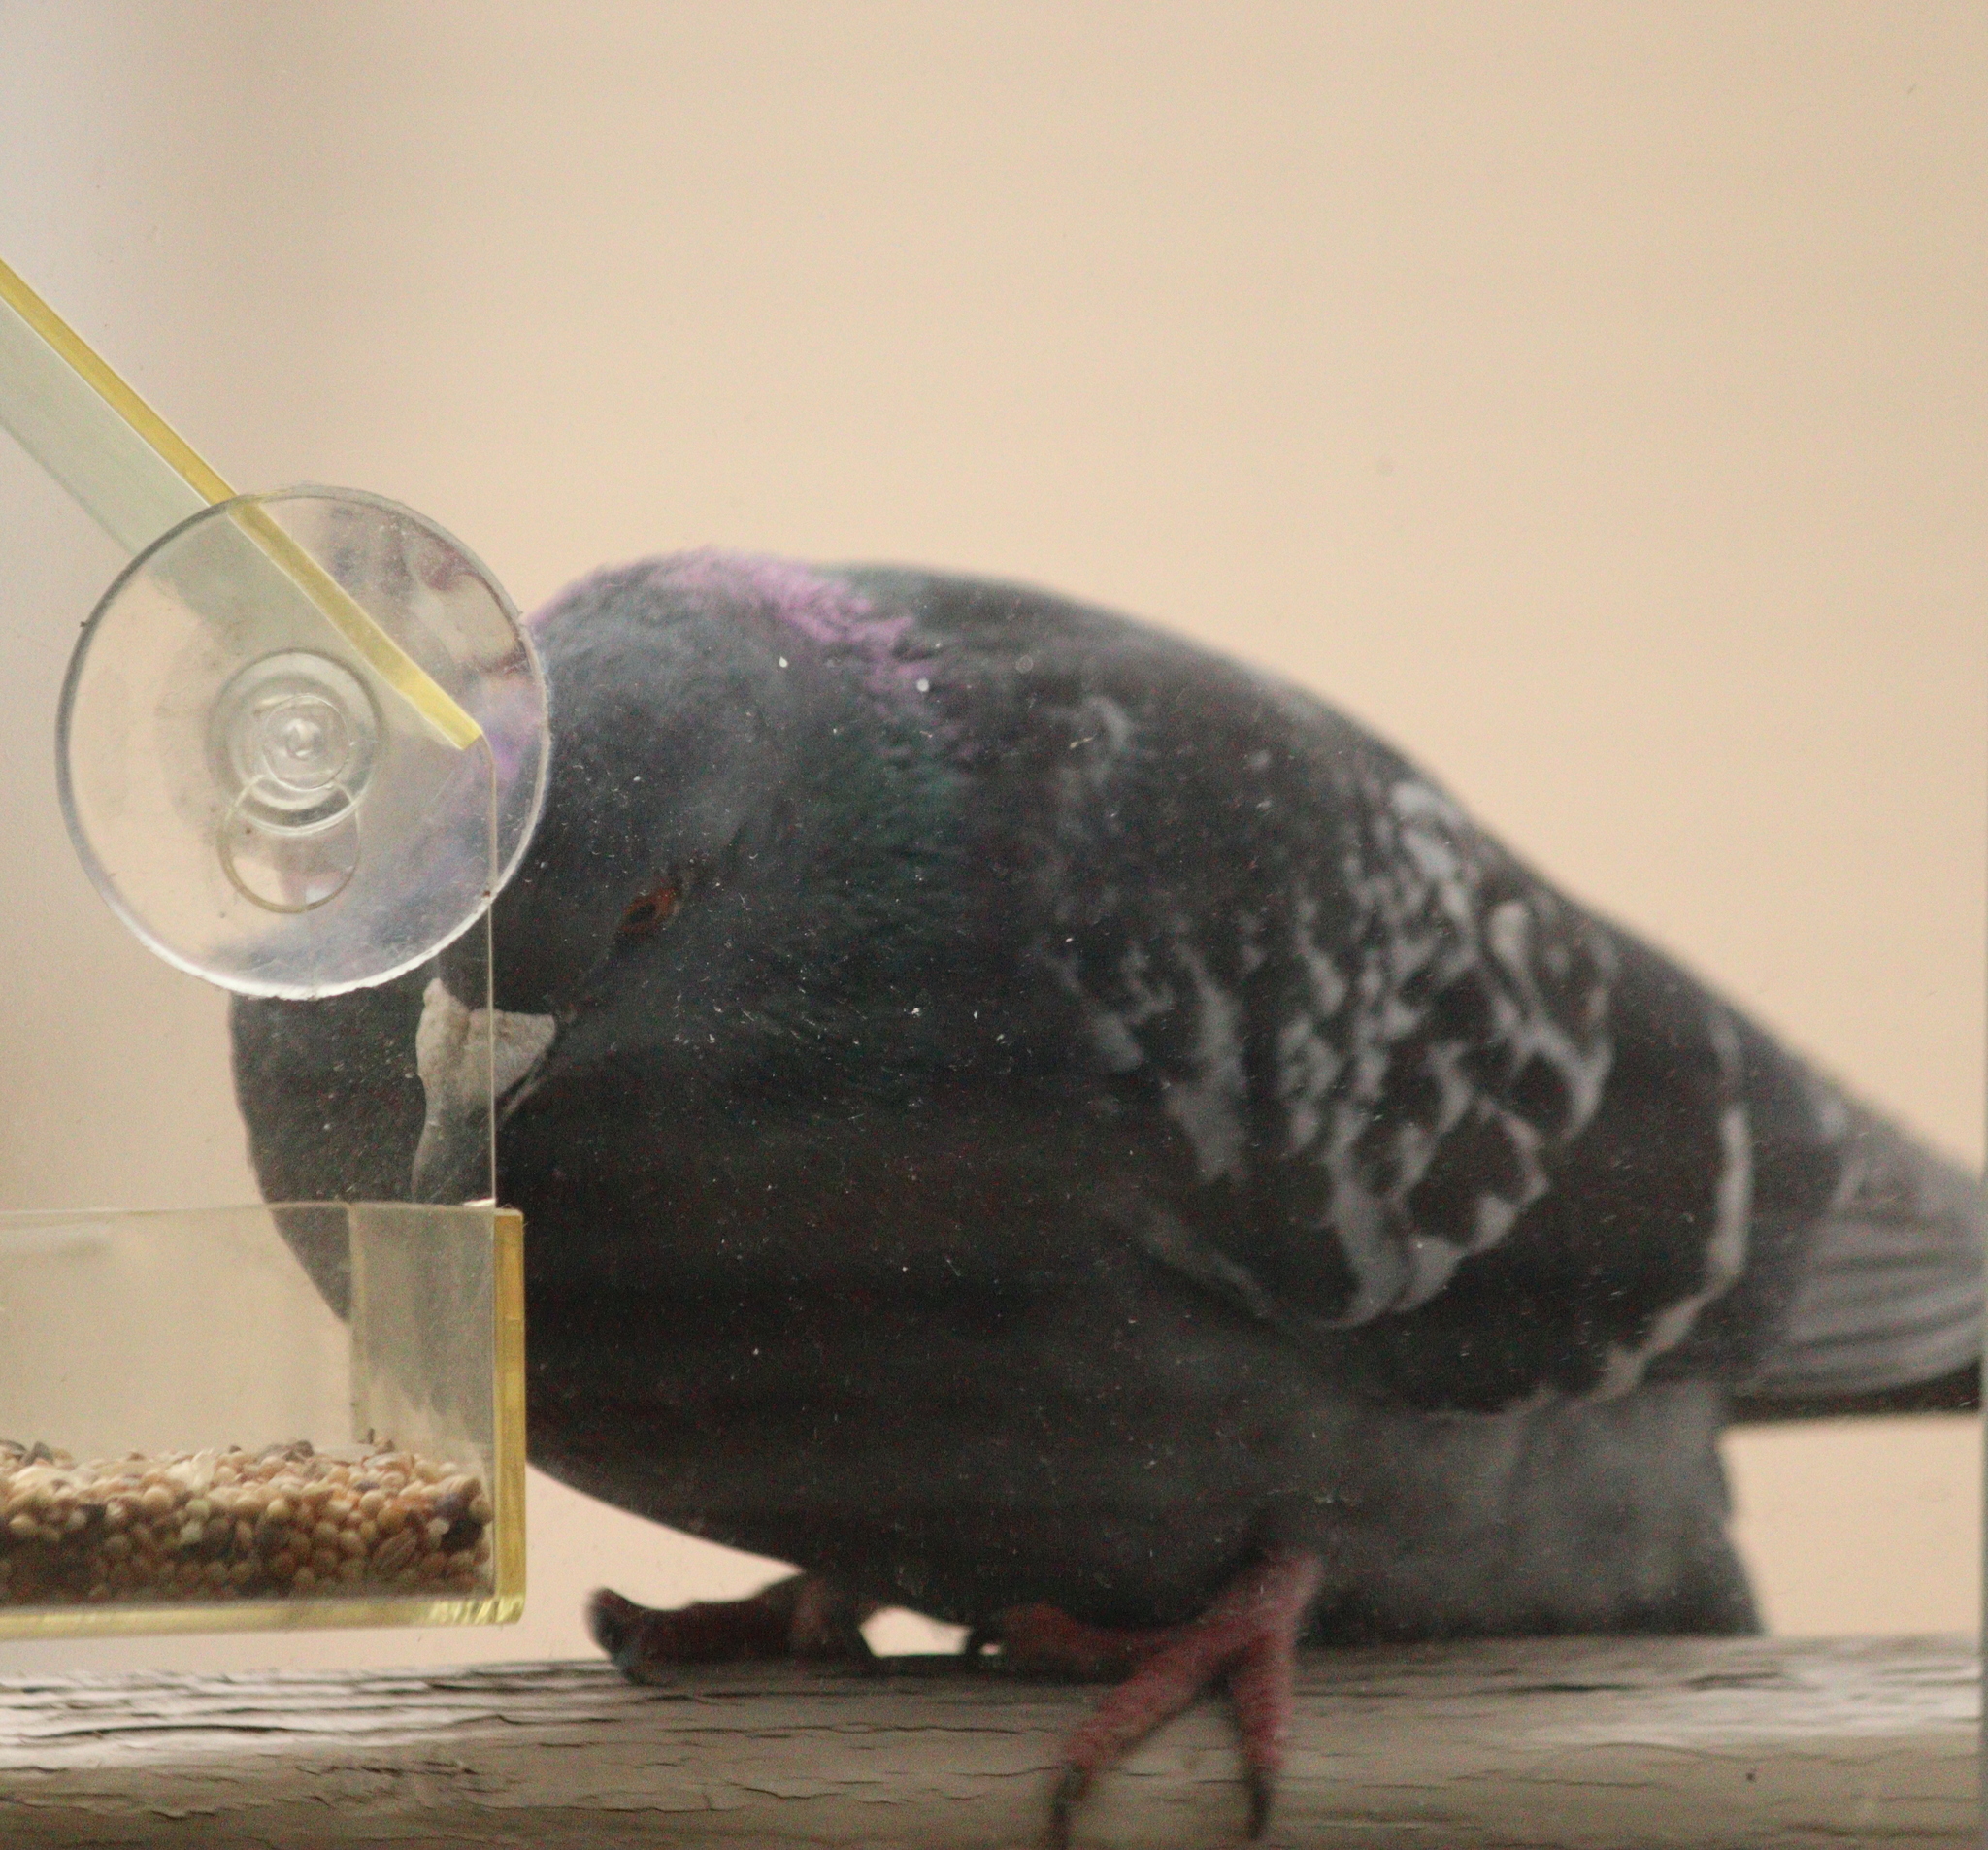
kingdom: Animalia
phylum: Chordata
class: Aves
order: Columbiformes
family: Columbidae
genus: Columba
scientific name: Columba livia
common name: Rock pigeon
